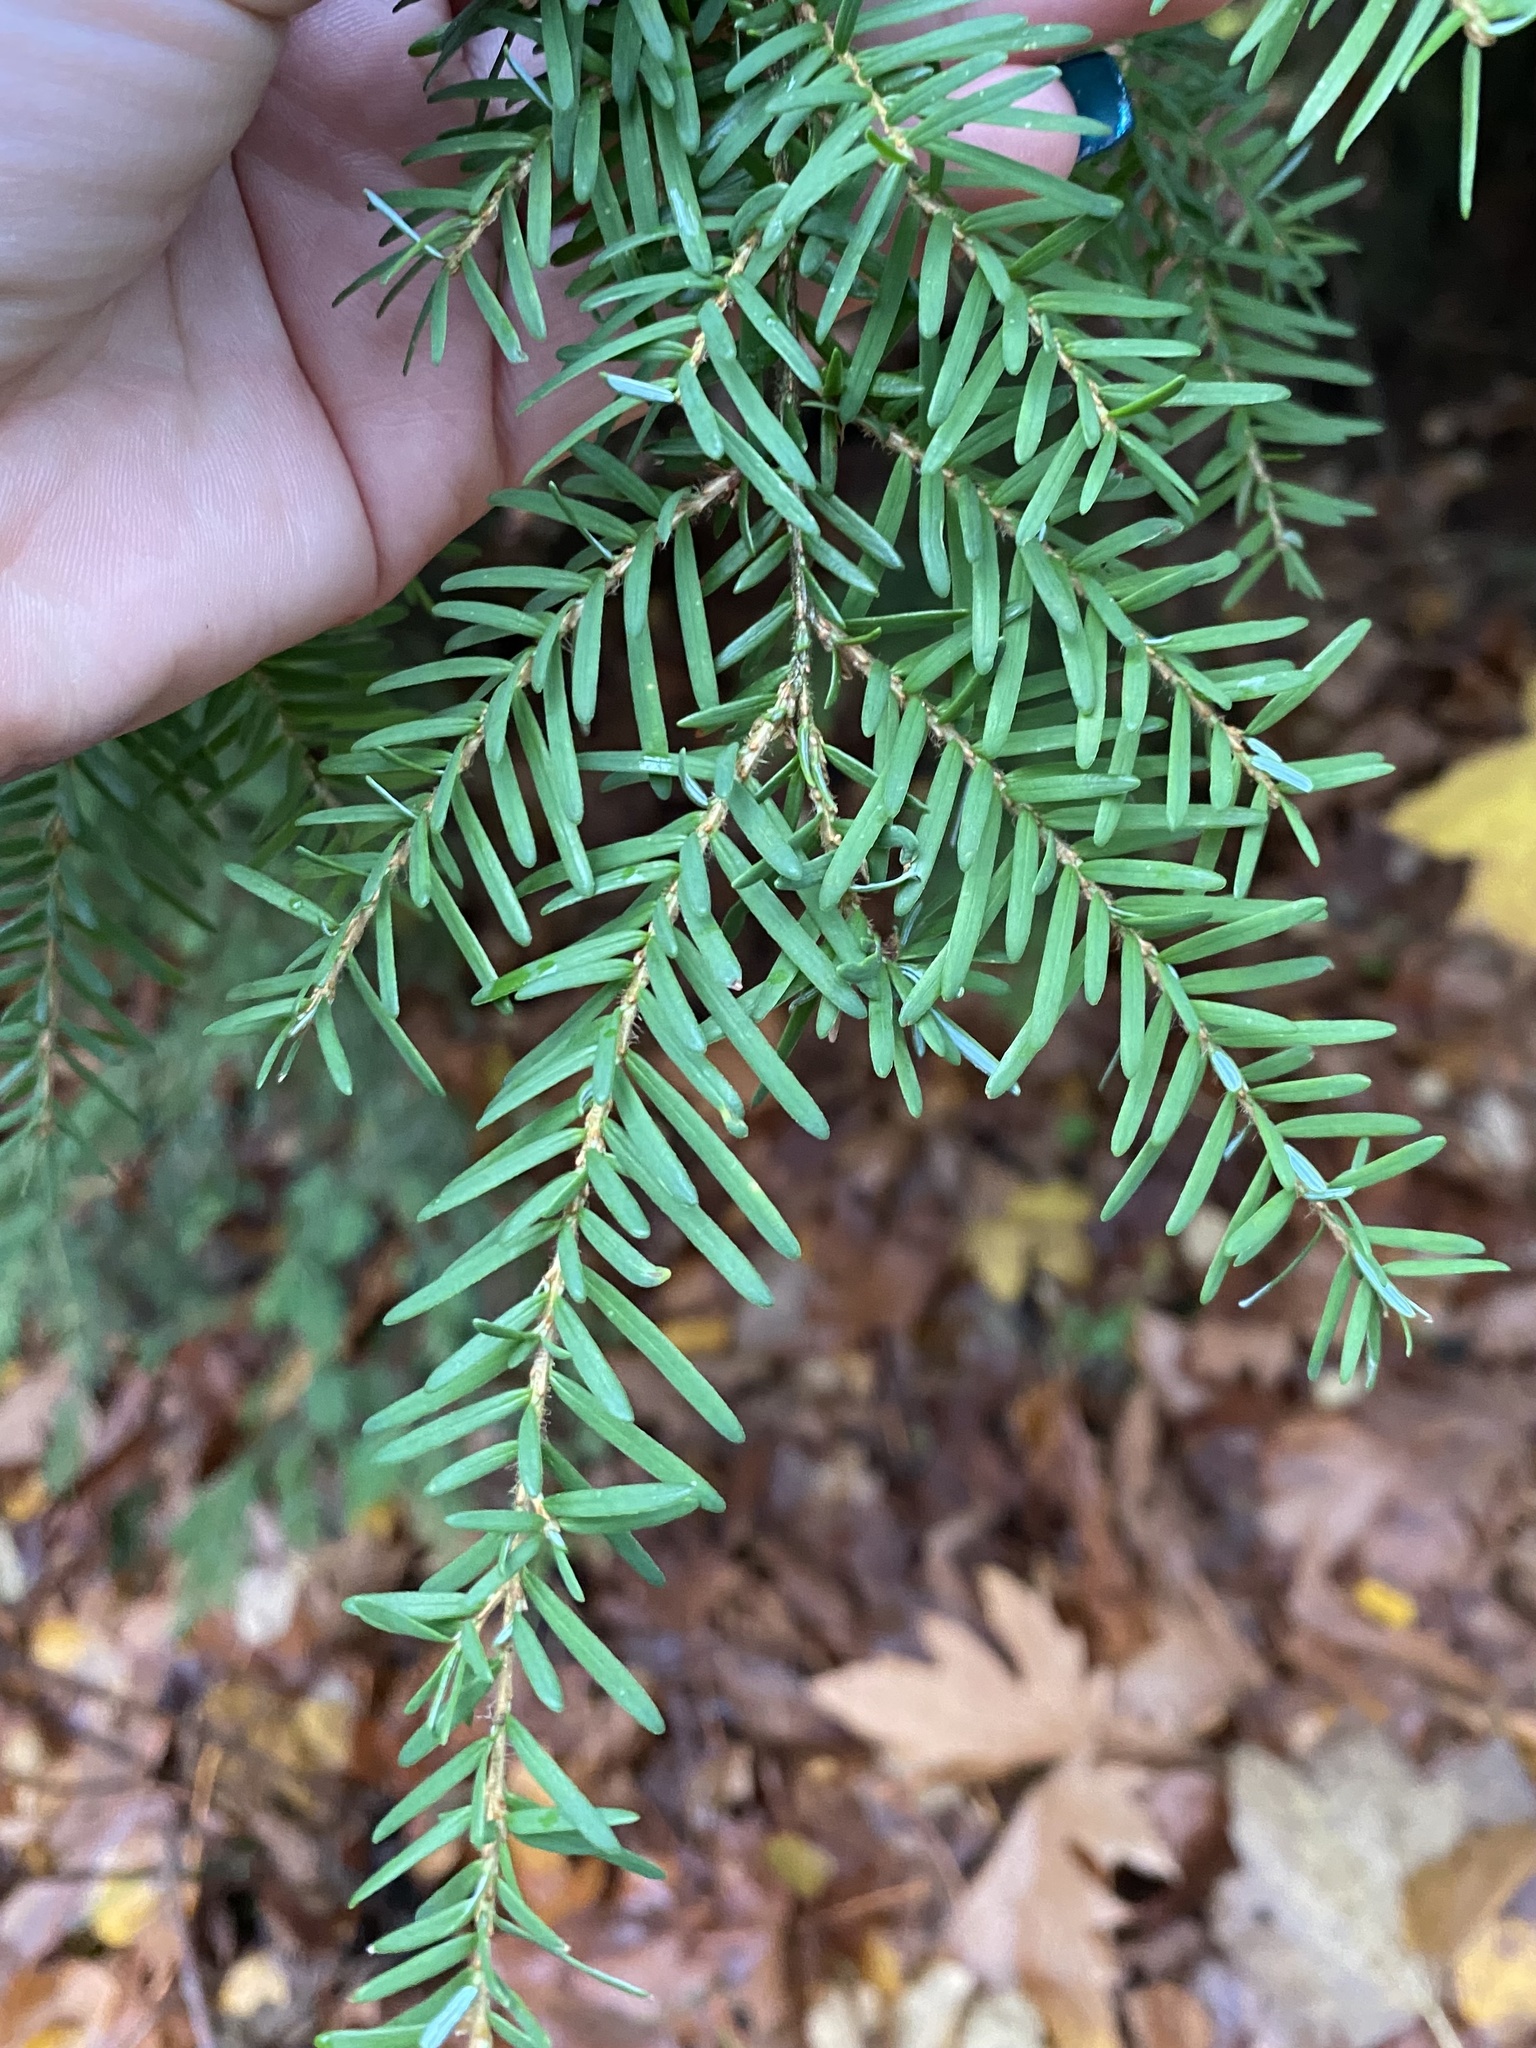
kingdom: Plantae
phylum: Tracheophyta
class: Pinopsida
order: Pinales
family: Pinaceae
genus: Tsuga
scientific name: Tsuga heterophylla
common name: Western hemlock
